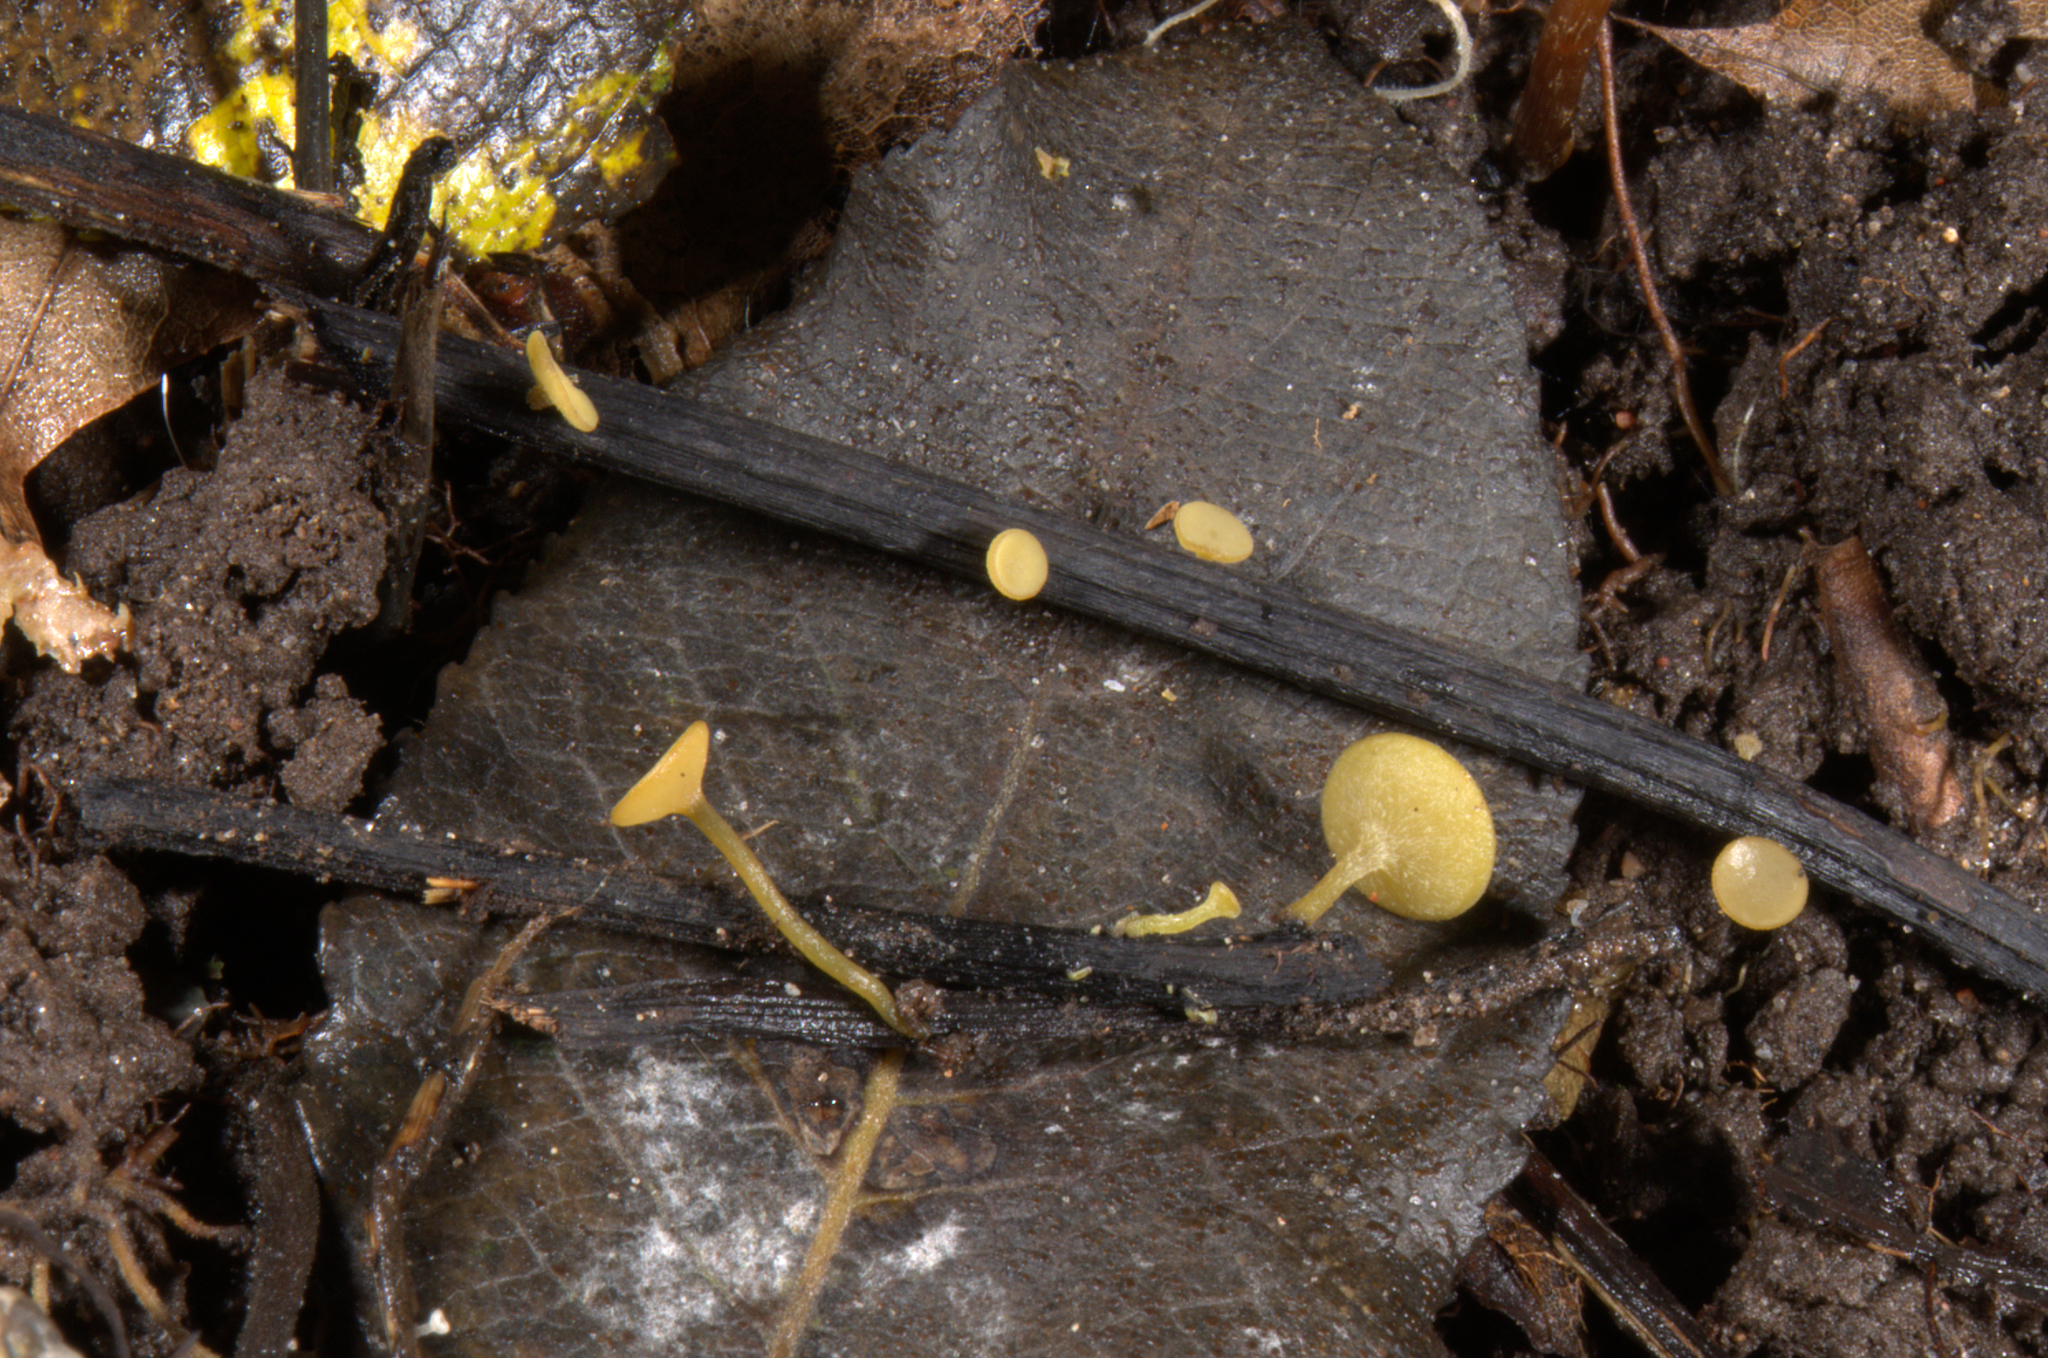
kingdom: Fungi
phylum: Ascomycota
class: Leotiomycetes
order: Helotiales
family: Rutstroemiaceae
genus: Lanzia
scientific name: Lanzia luteovirescens
